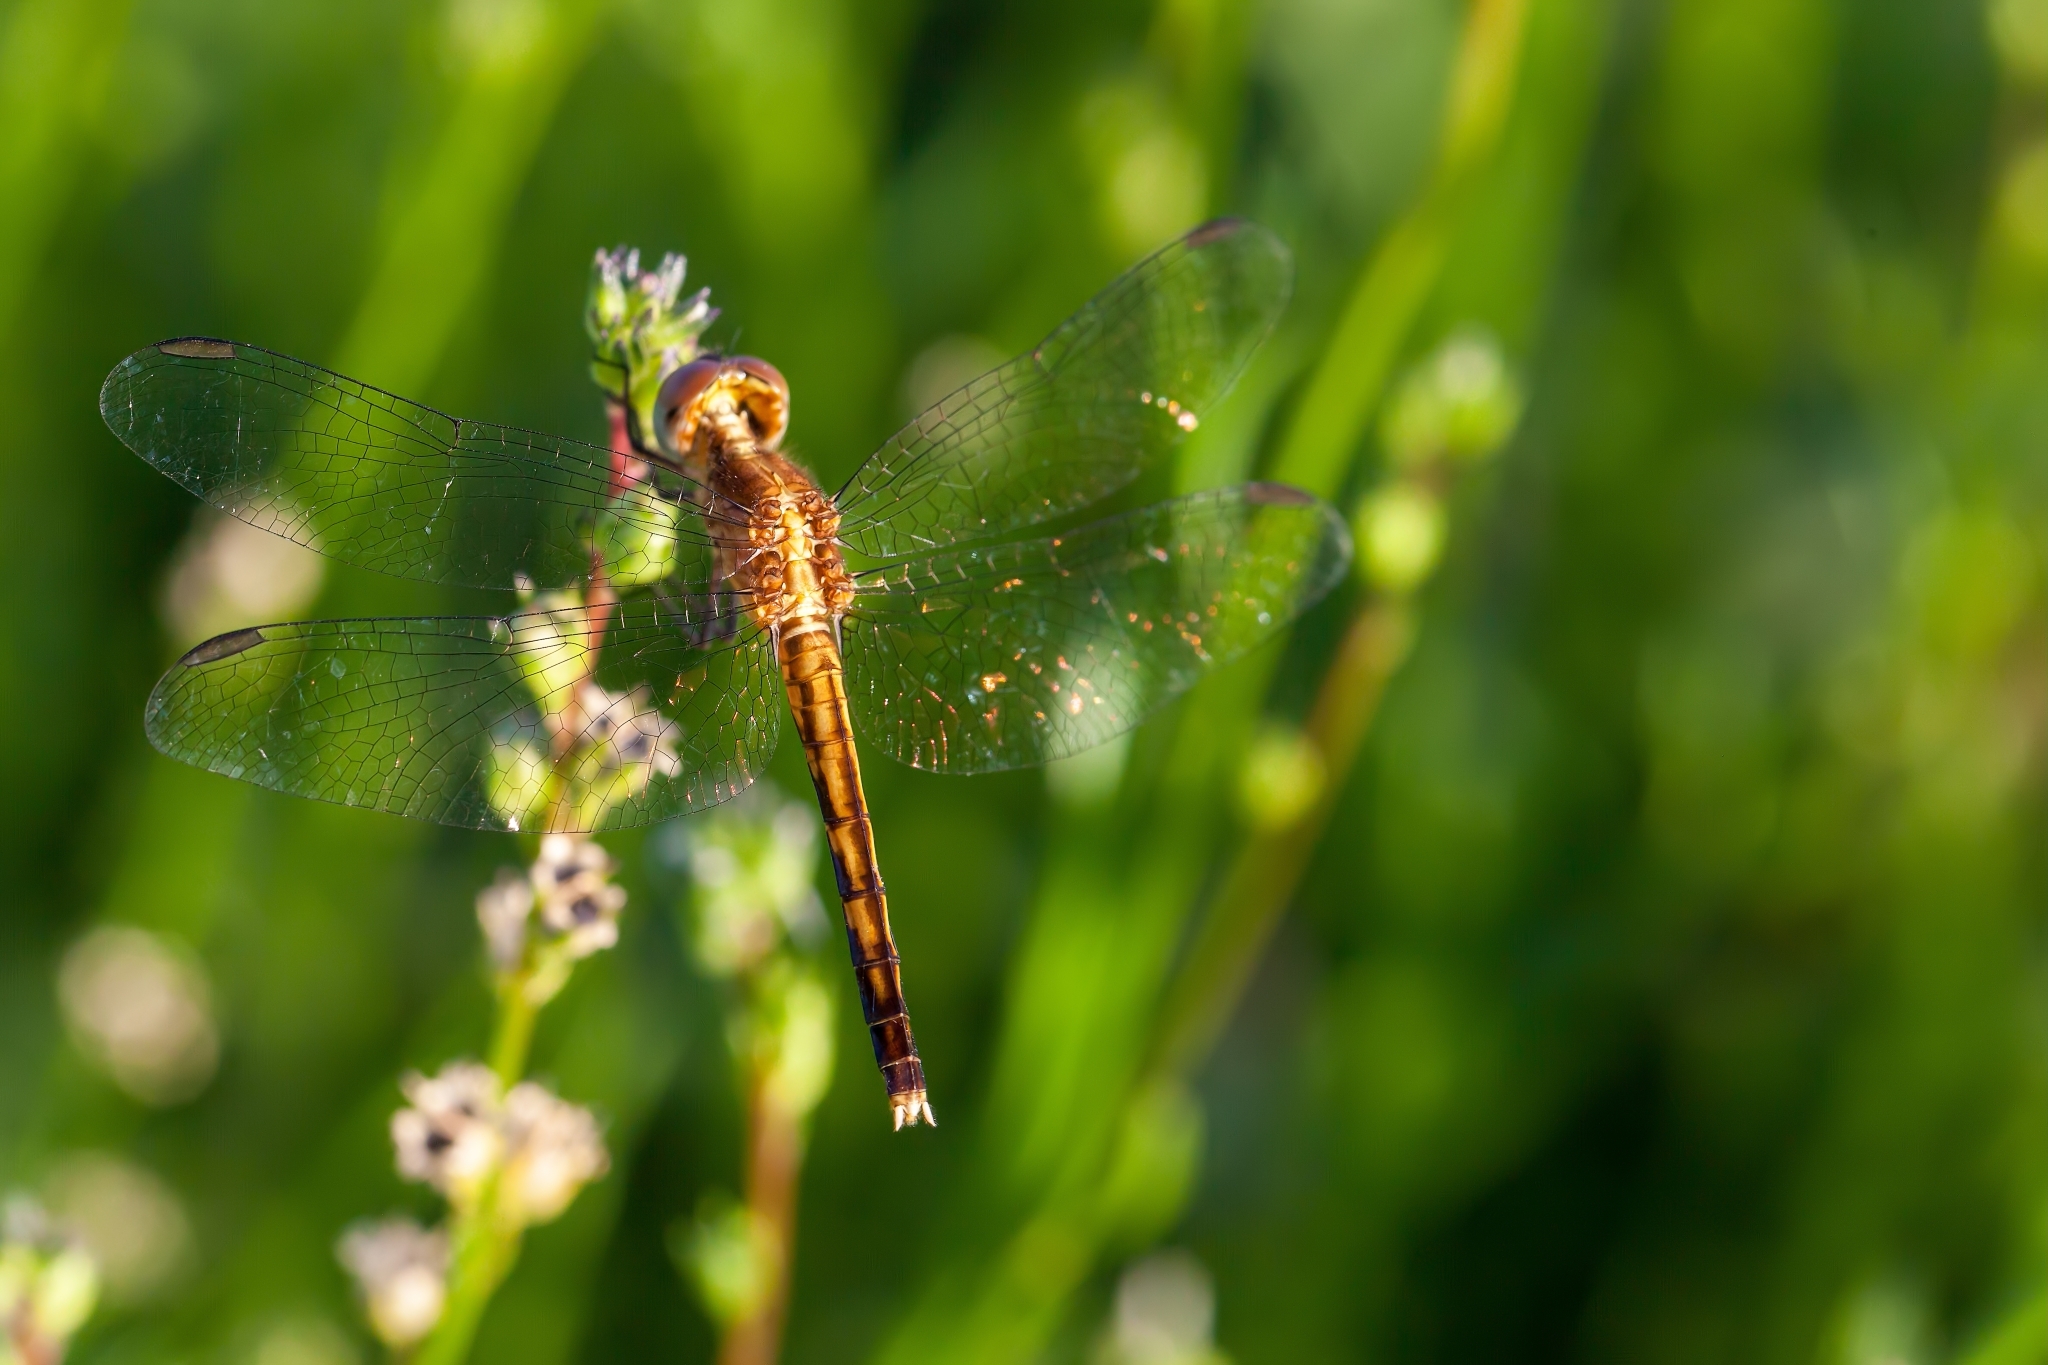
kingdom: Animalia
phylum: Arthropoda
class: Insecta
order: Odonata
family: Libellulidae
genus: Erythrodiplax
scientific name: Erythrodiplax minuscula
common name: Little blue dragonlet
